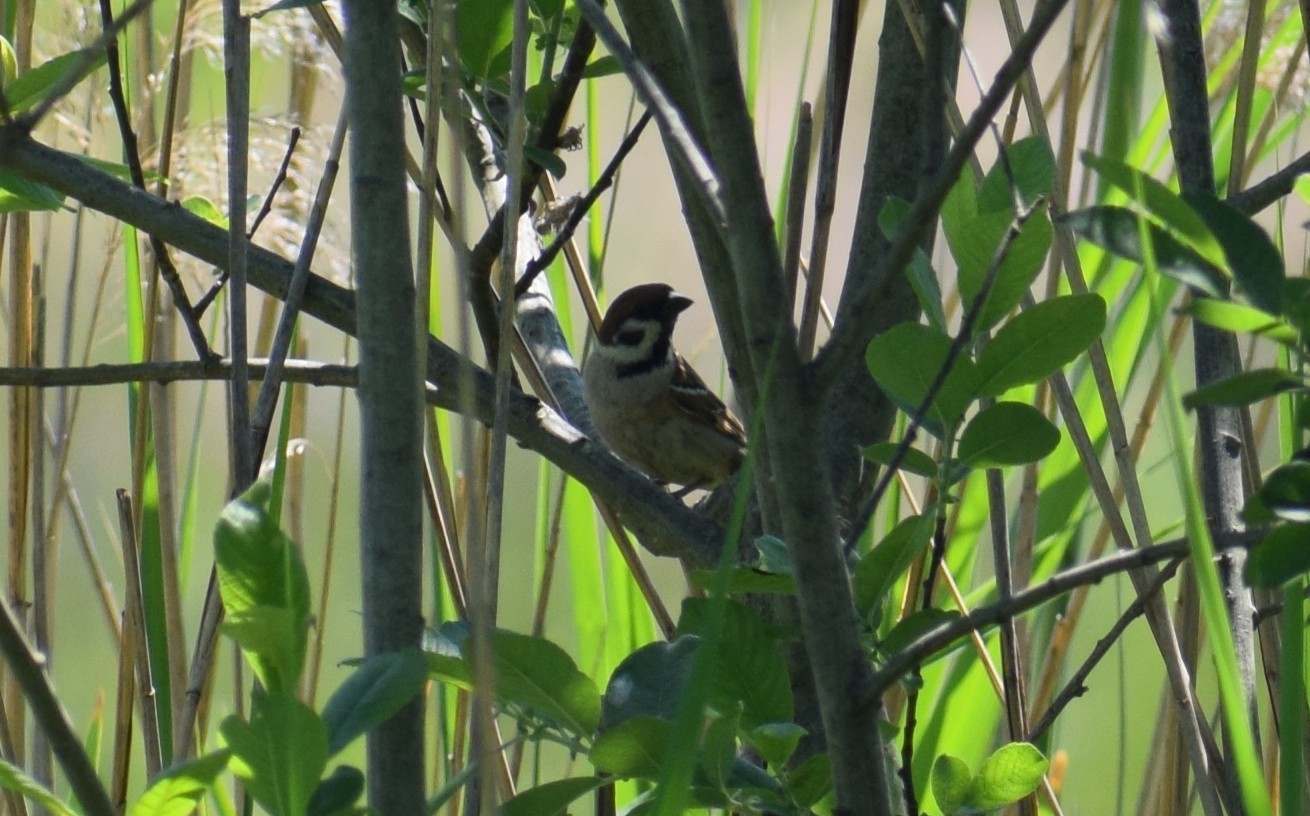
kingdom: Animalia
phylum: Chordata
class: Aves
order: Passeriformes
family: Passeridae
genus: Passer
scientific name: Passer montanus
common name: Eurasian tree sparrow
